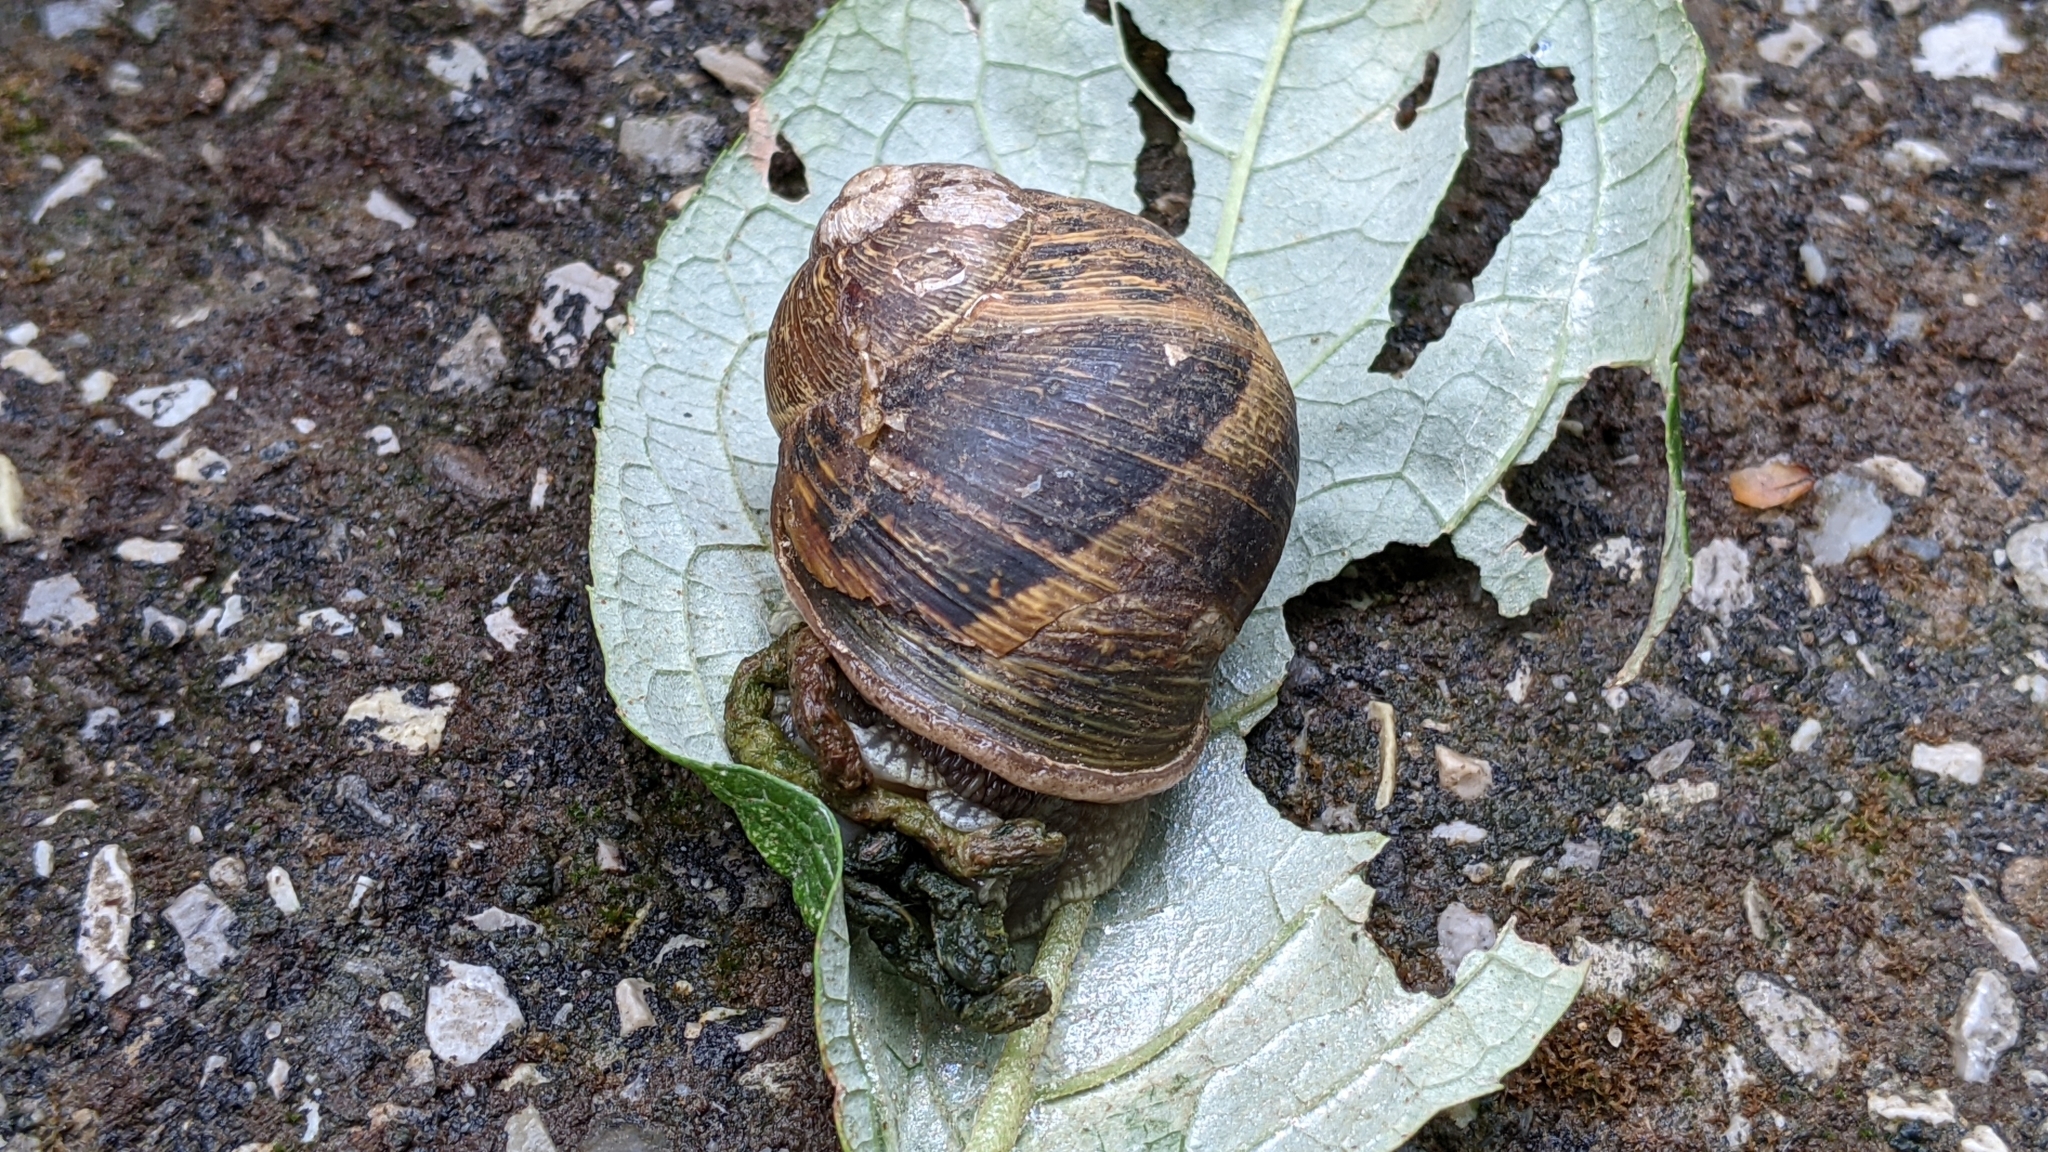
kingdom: Animalia
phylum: Mollusca
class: Gastropoda
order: Stylommatophora
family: Helicidae
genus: Cornu
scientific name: Cornu aspersum
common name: Brown garden snail
